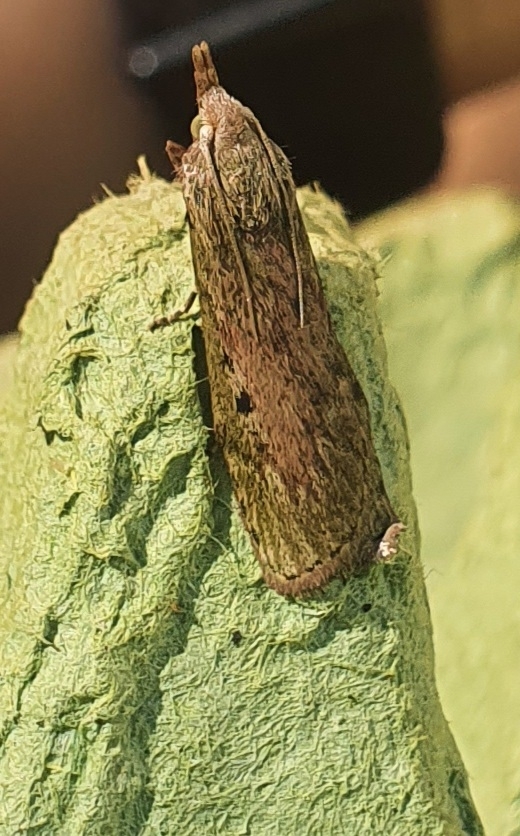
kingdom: Animalia
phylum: Arthropoda
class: Insecta
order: Lepidoptera
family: Pyralidae
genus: Aphomia
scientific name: Aphomia sociella
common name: Bee moth
